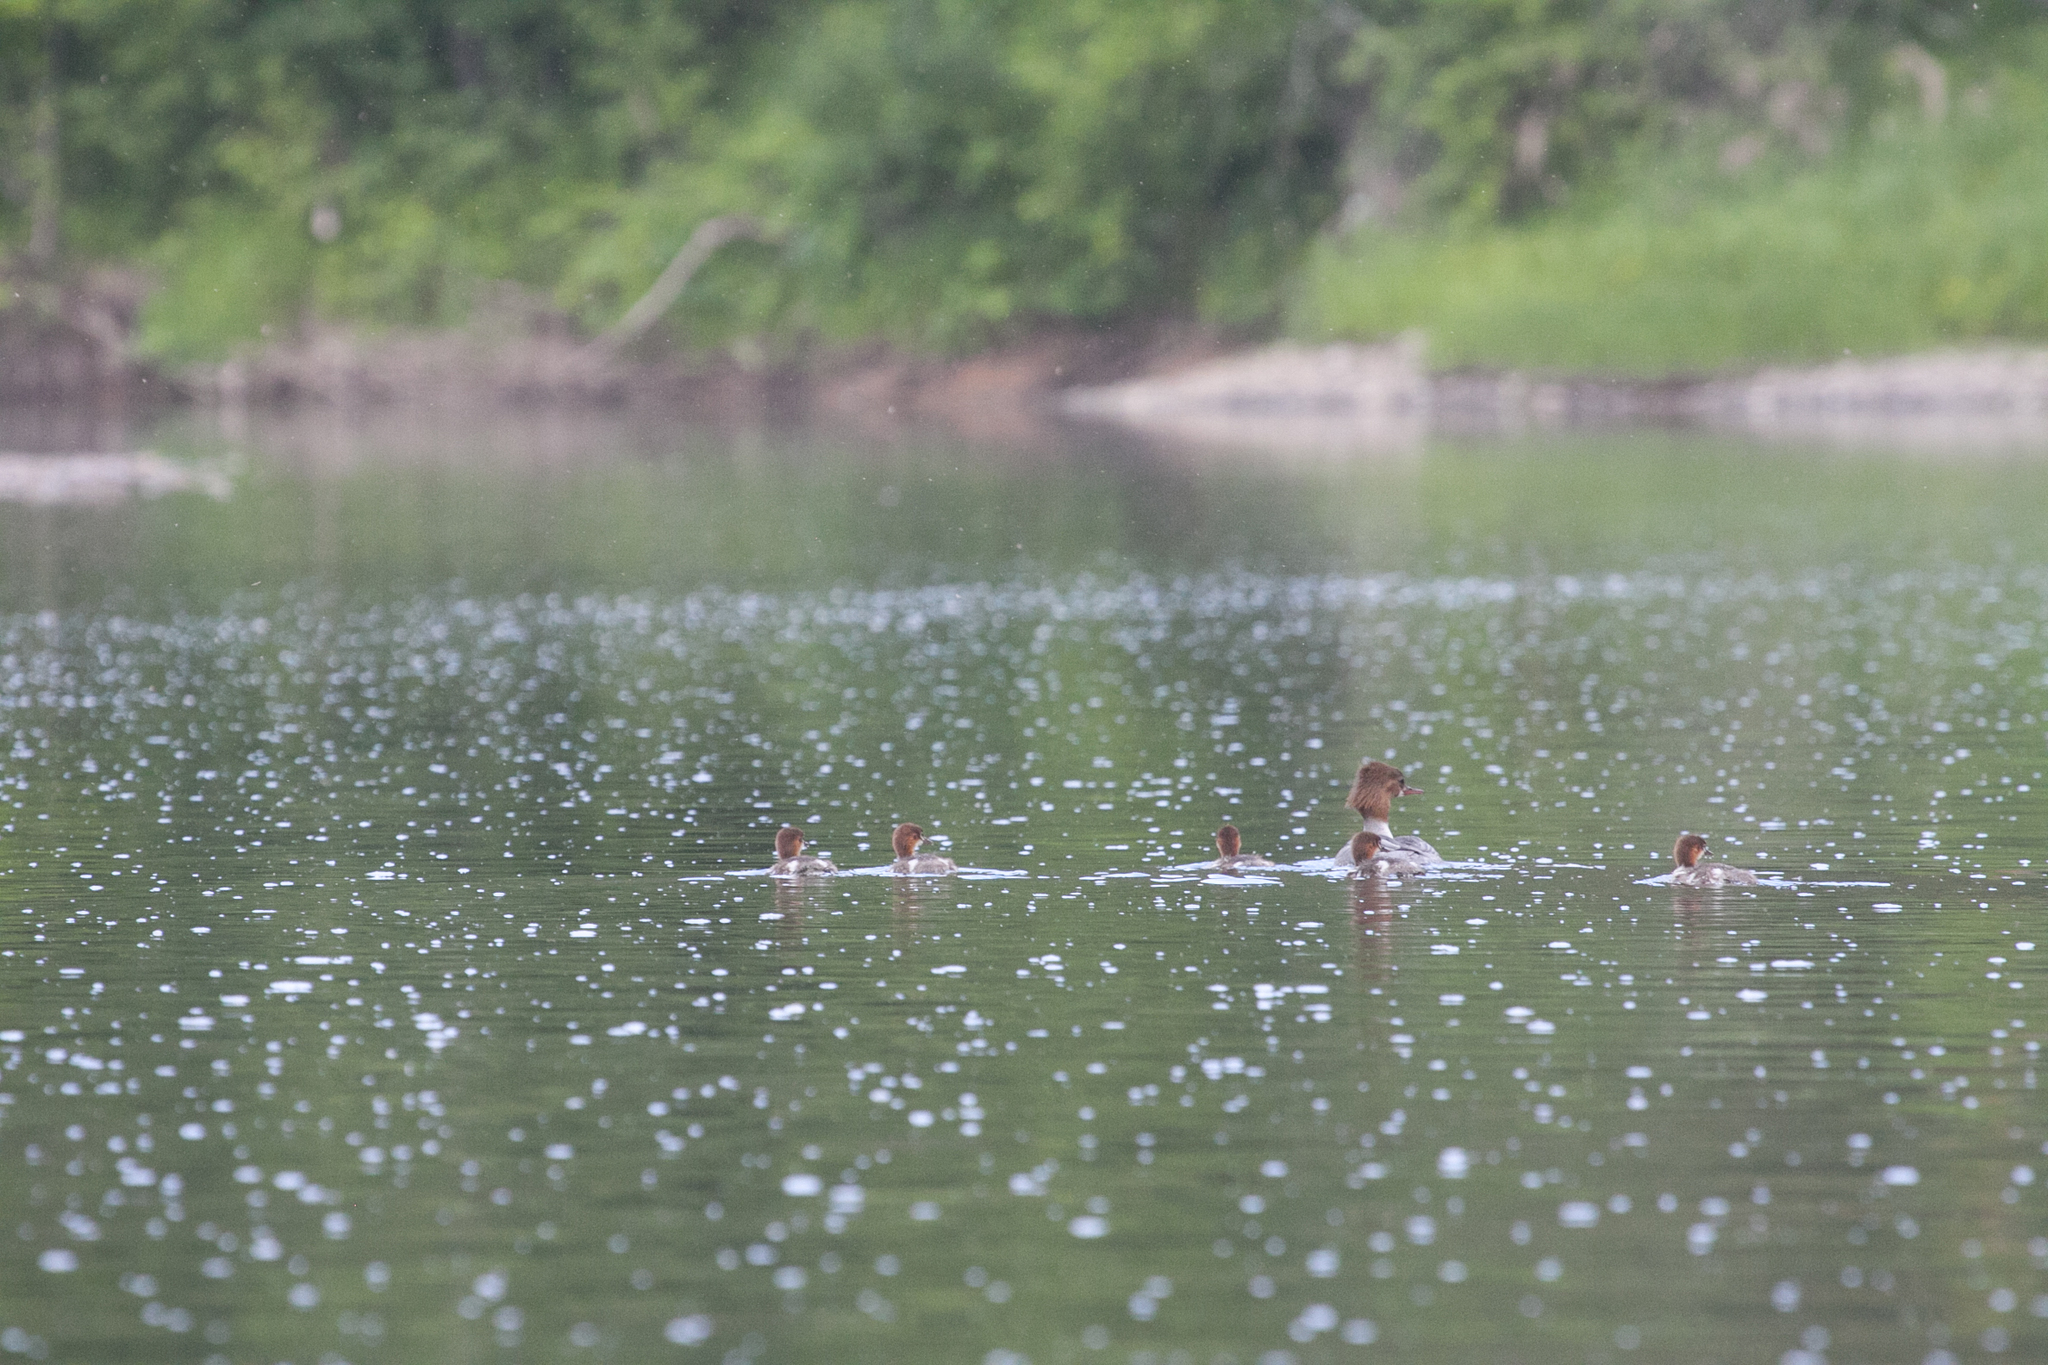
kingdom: Animalia
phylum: Chordata
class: Aves
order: Anseriformes
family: Anatidae
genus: Mergus
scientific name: Mergus merganser
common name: Common merganser
